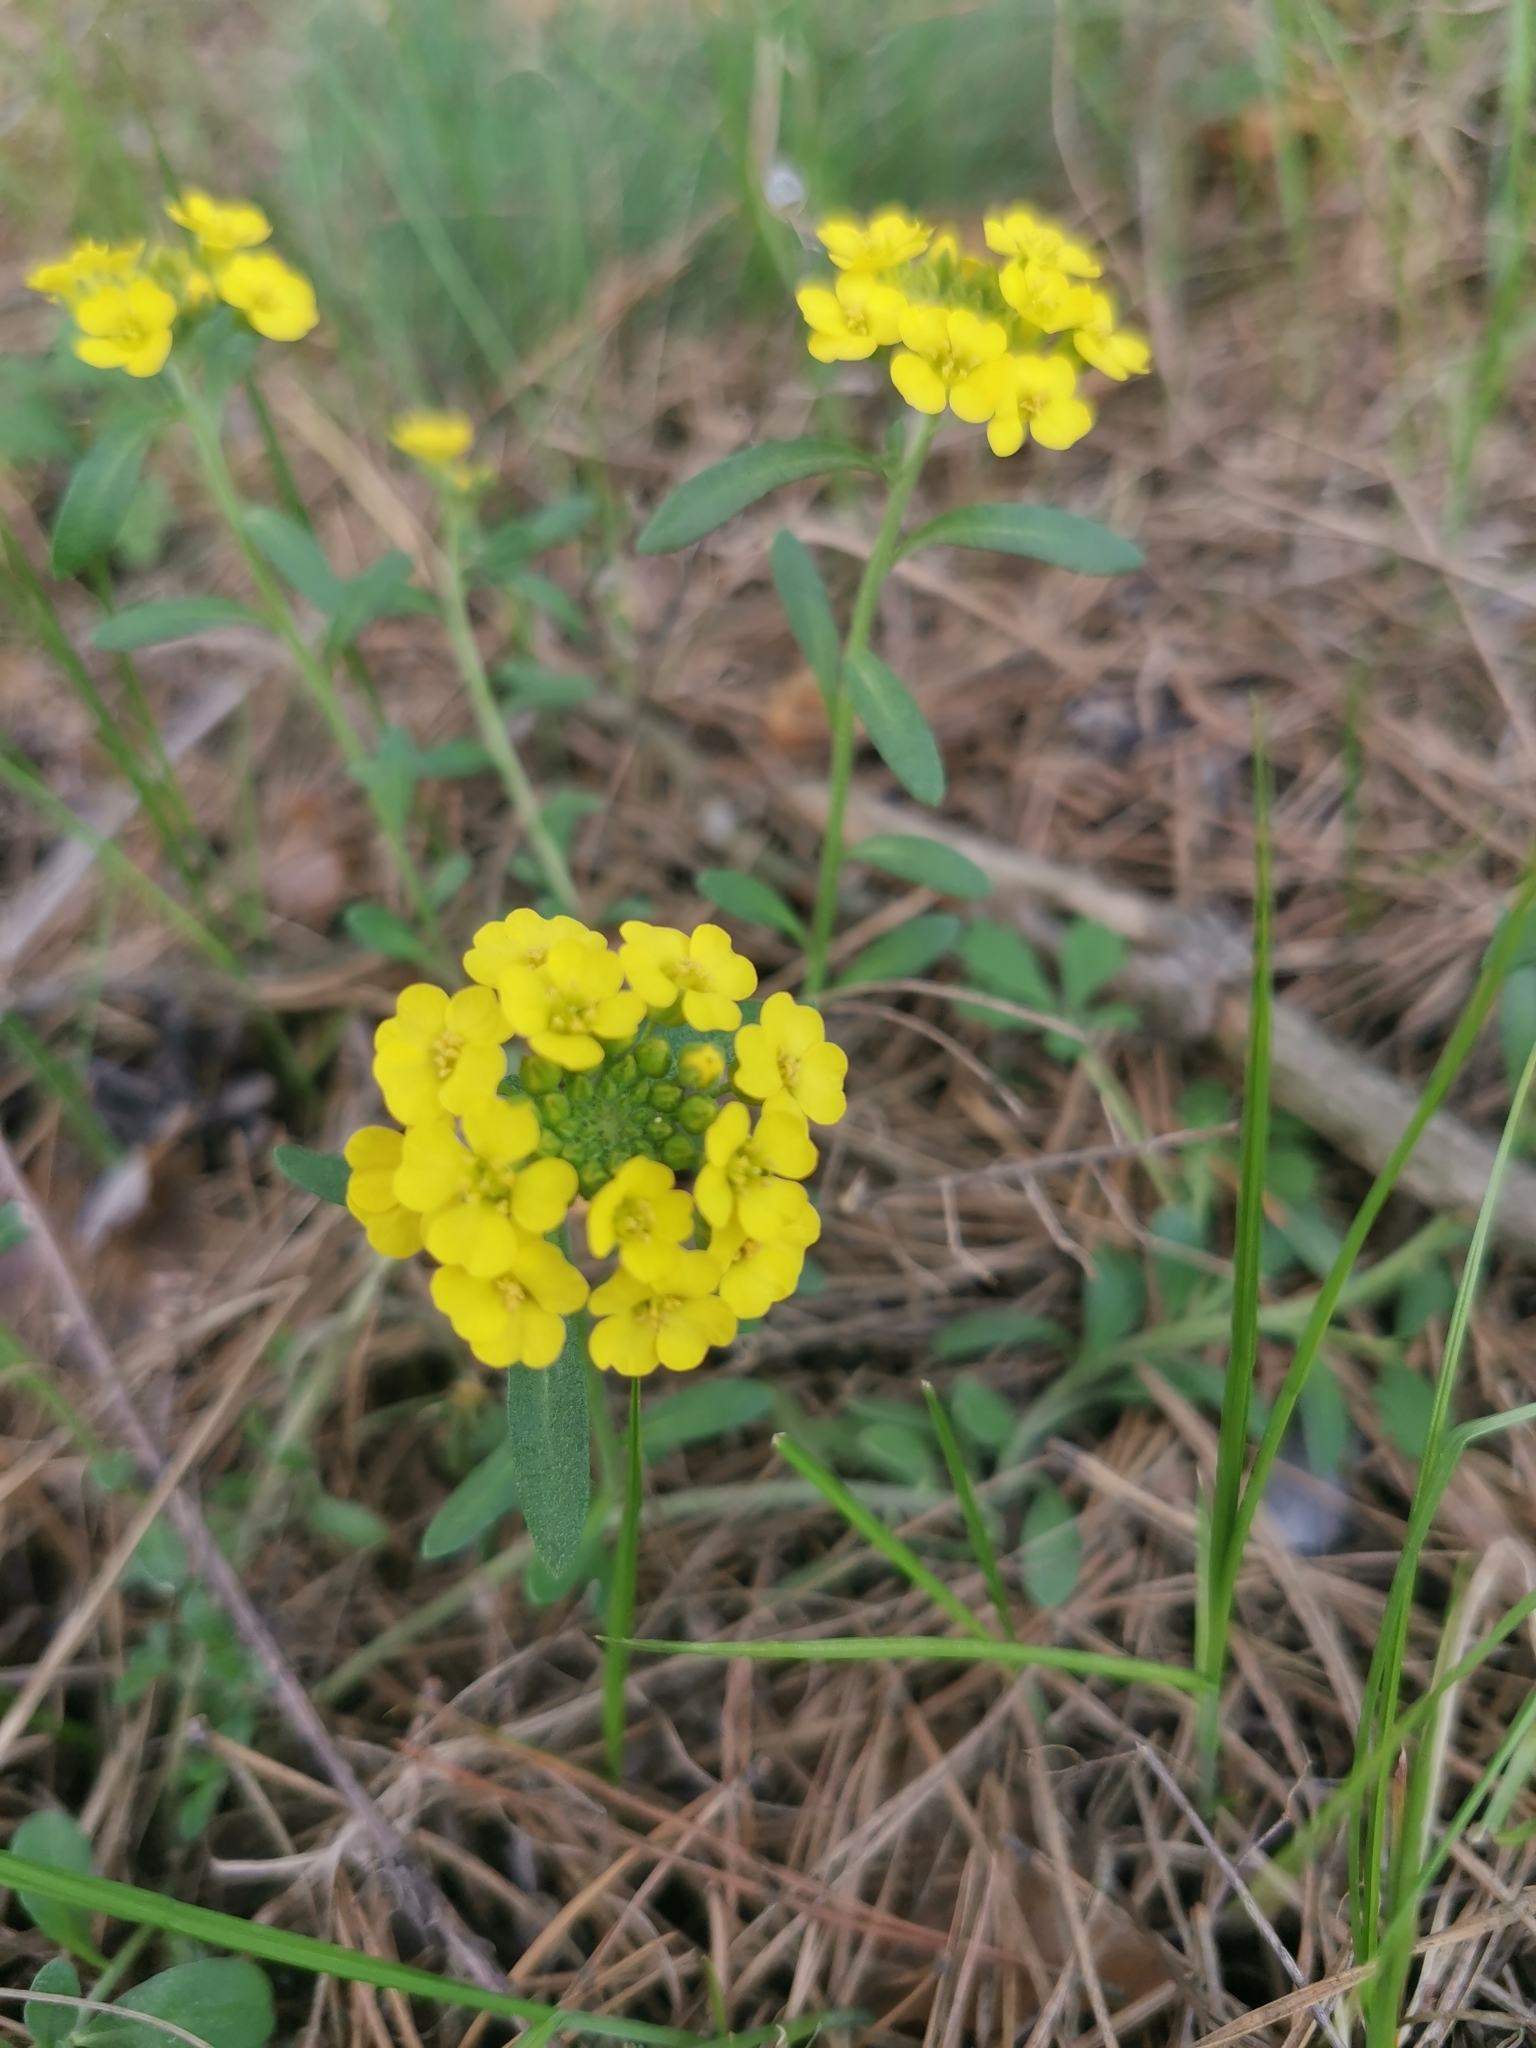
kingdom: Plantae
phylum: Tracheophyta
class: Magnoliopsida
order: Brassicales
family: Brassicaceae
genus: Alyssum
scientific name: Alyssum gmelinii
